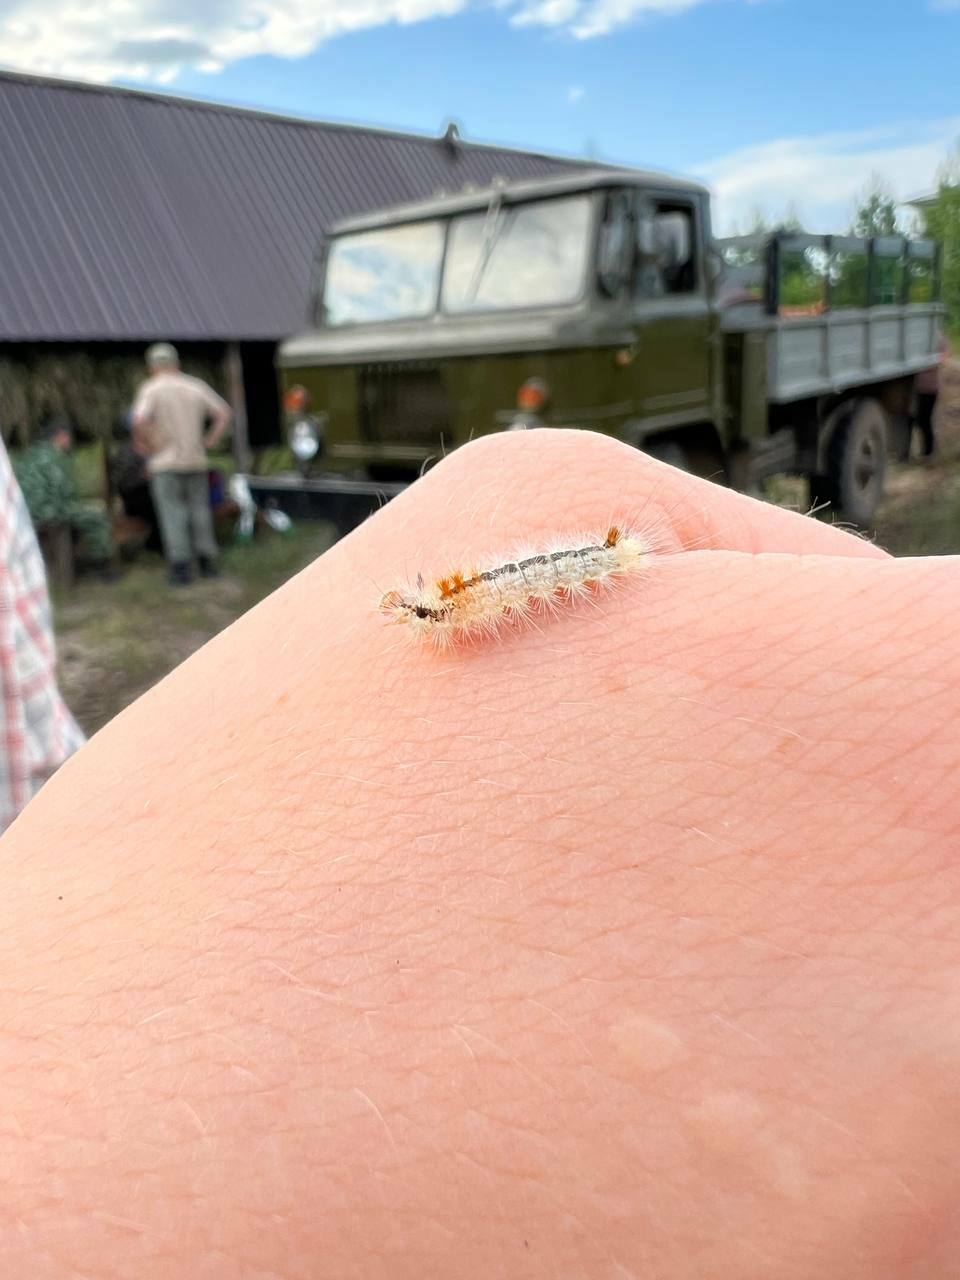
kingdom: Animalia
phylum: Arthropoda
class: Insecta
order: Lepidoptera
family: Noctuidae
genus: Colocasia
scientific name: Colocasia coryli
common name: Nut-tree tussock
